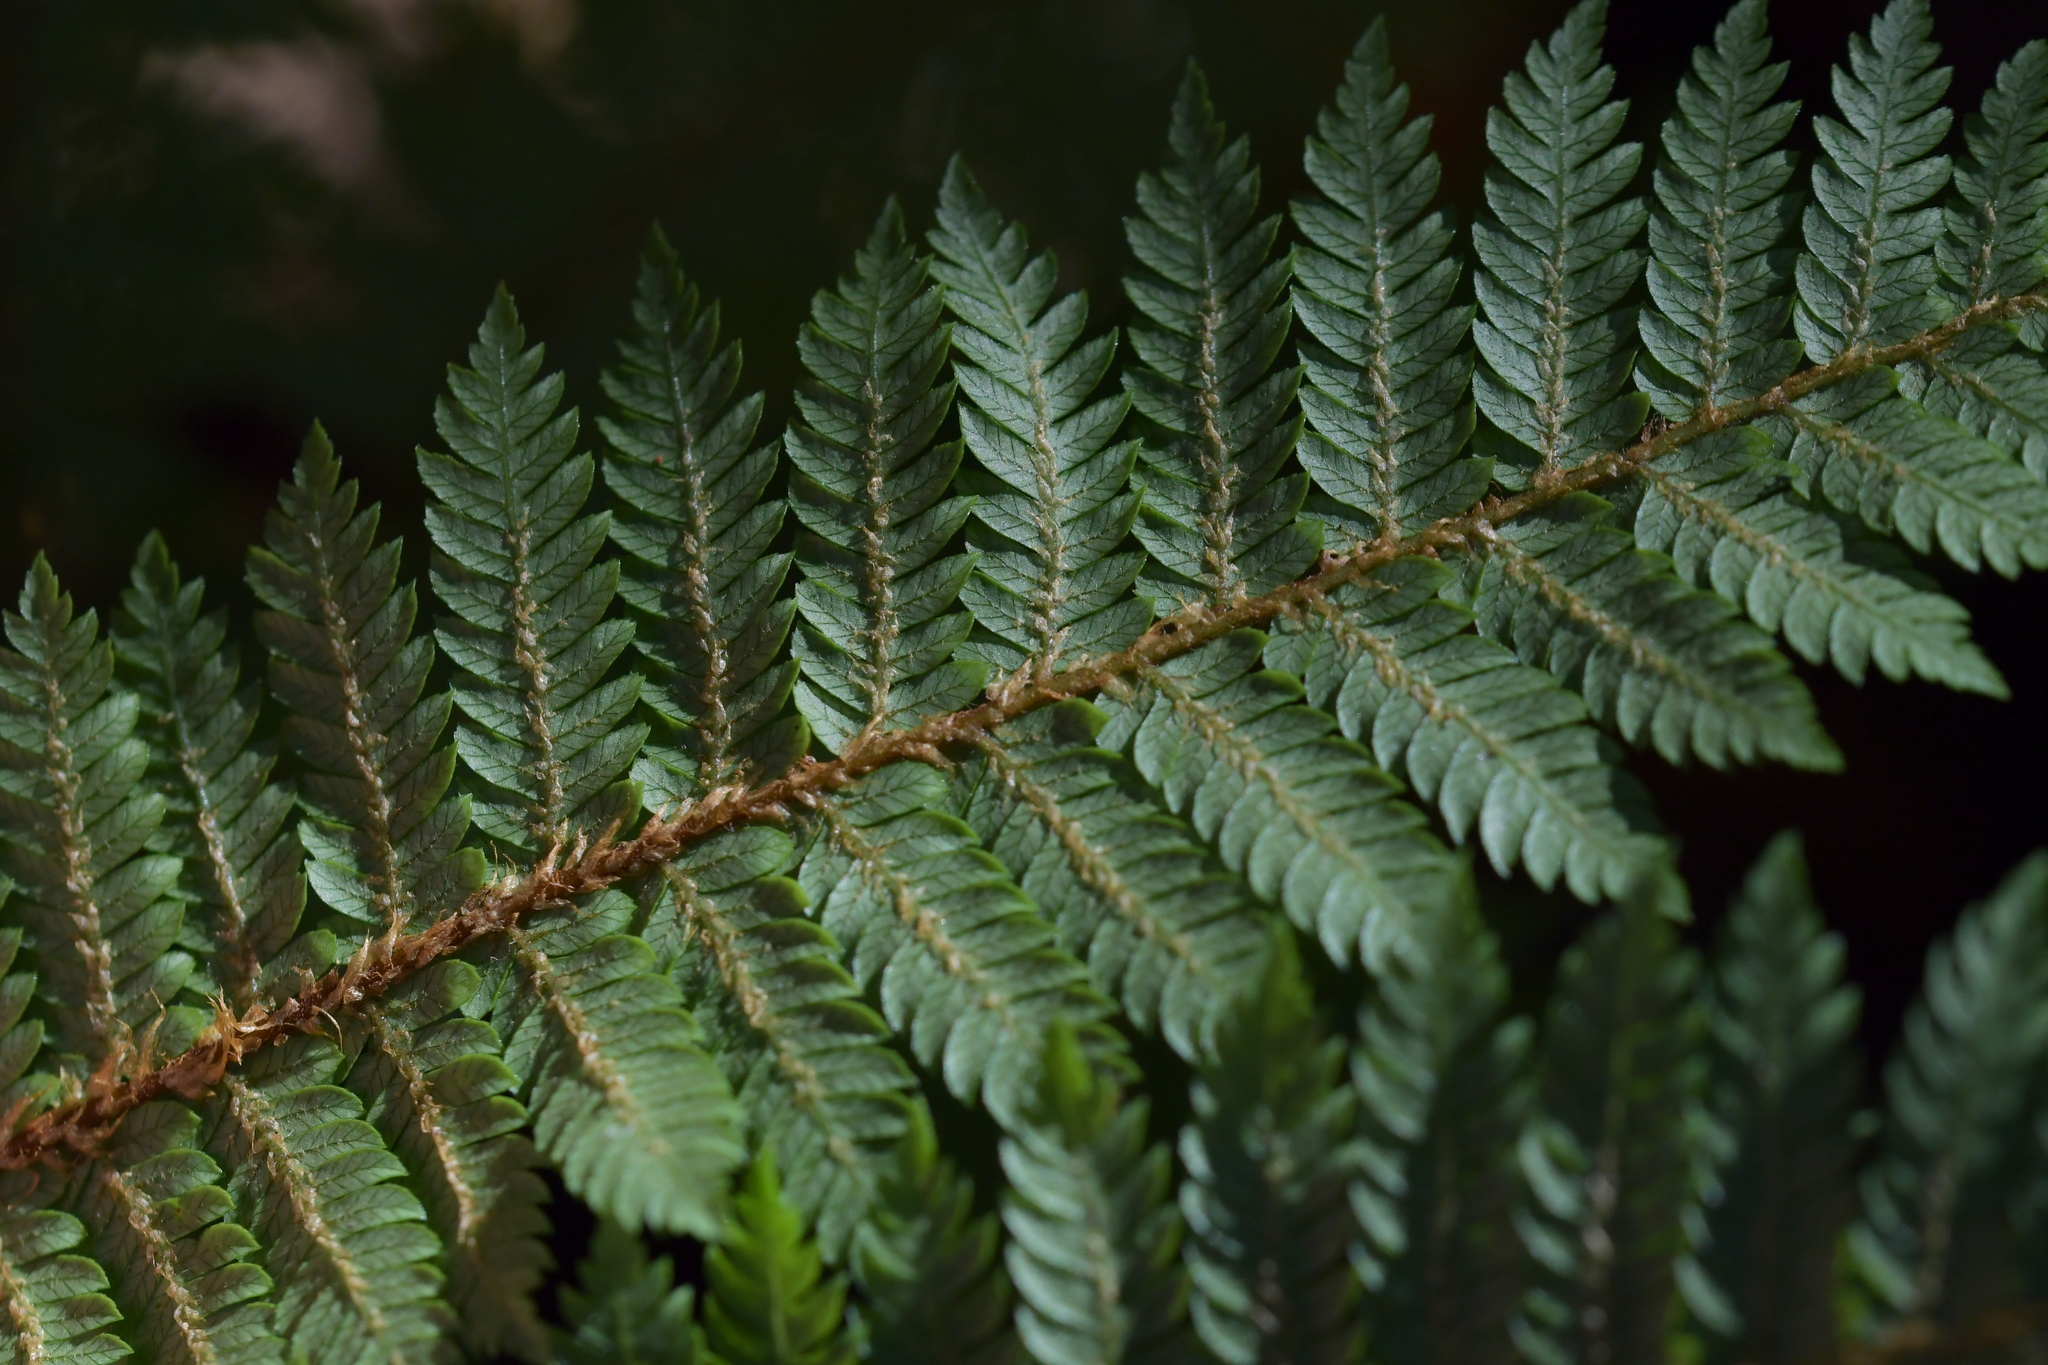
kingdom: Plantae
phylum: Tracheophyta
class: Polypodiopsida
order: Cyatheales
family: Cyatheaceae
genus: Alsophila
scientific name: Alsophila smithii
